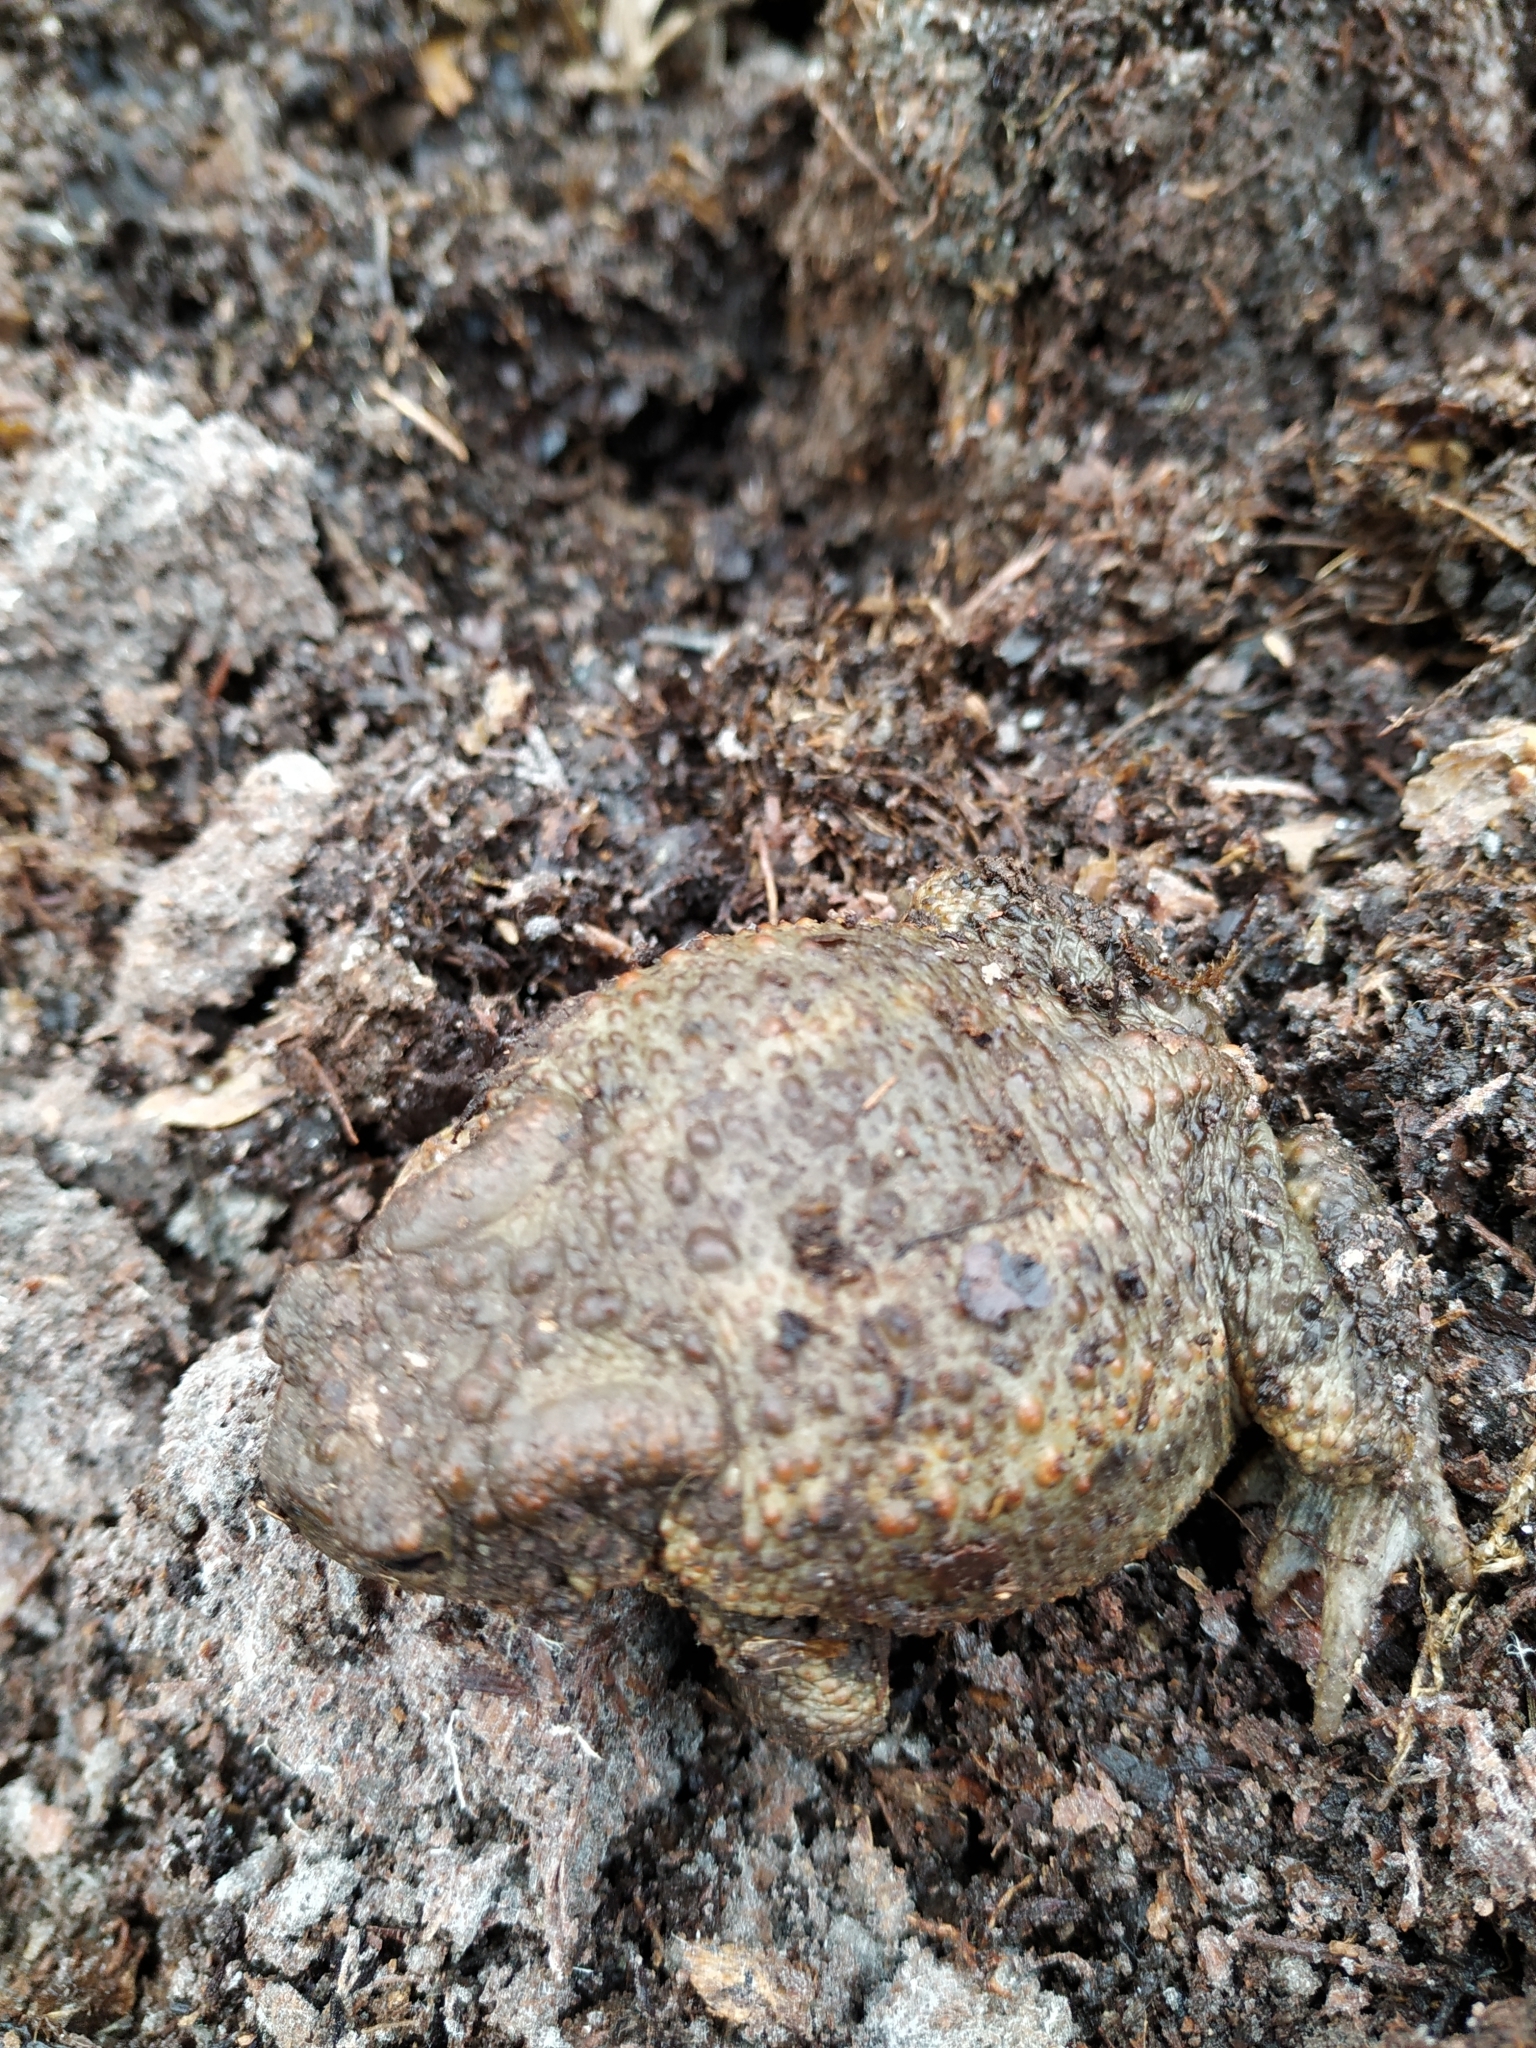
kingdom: Animalia
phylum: Chordata
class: Amphibia
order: Anura
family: Bufonidae
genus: Bufo
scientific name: Bufo bufo
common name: Common toad
